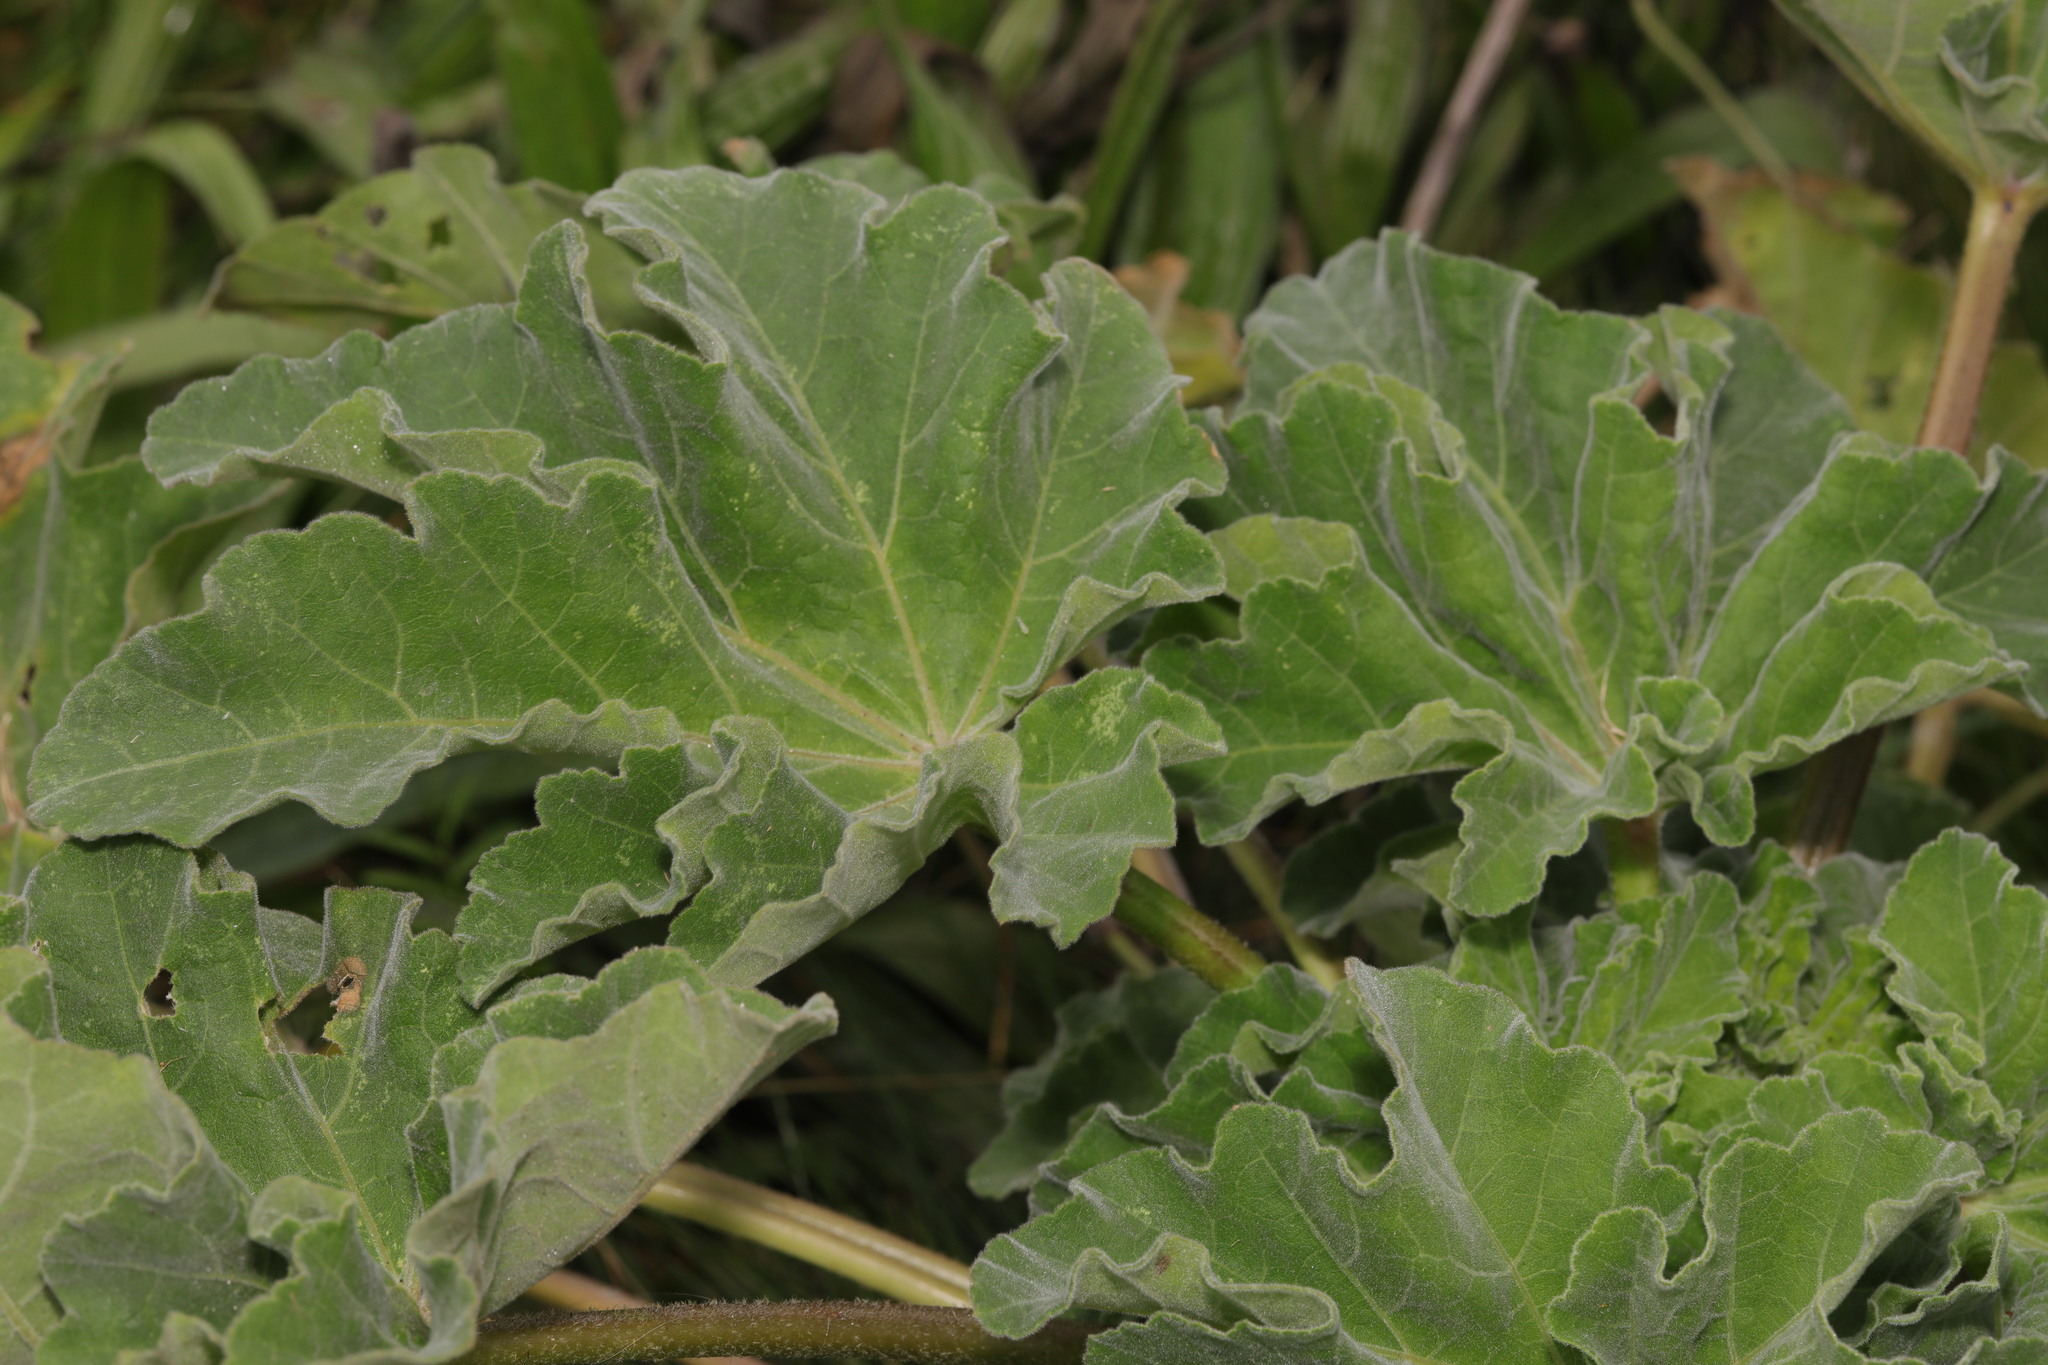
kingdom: Plantae
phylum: Tracheophyta
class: Magnoliopsida
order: Malvales
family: Malvaceae
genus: Malva
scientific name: Malva arborea
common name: Tree mallow
